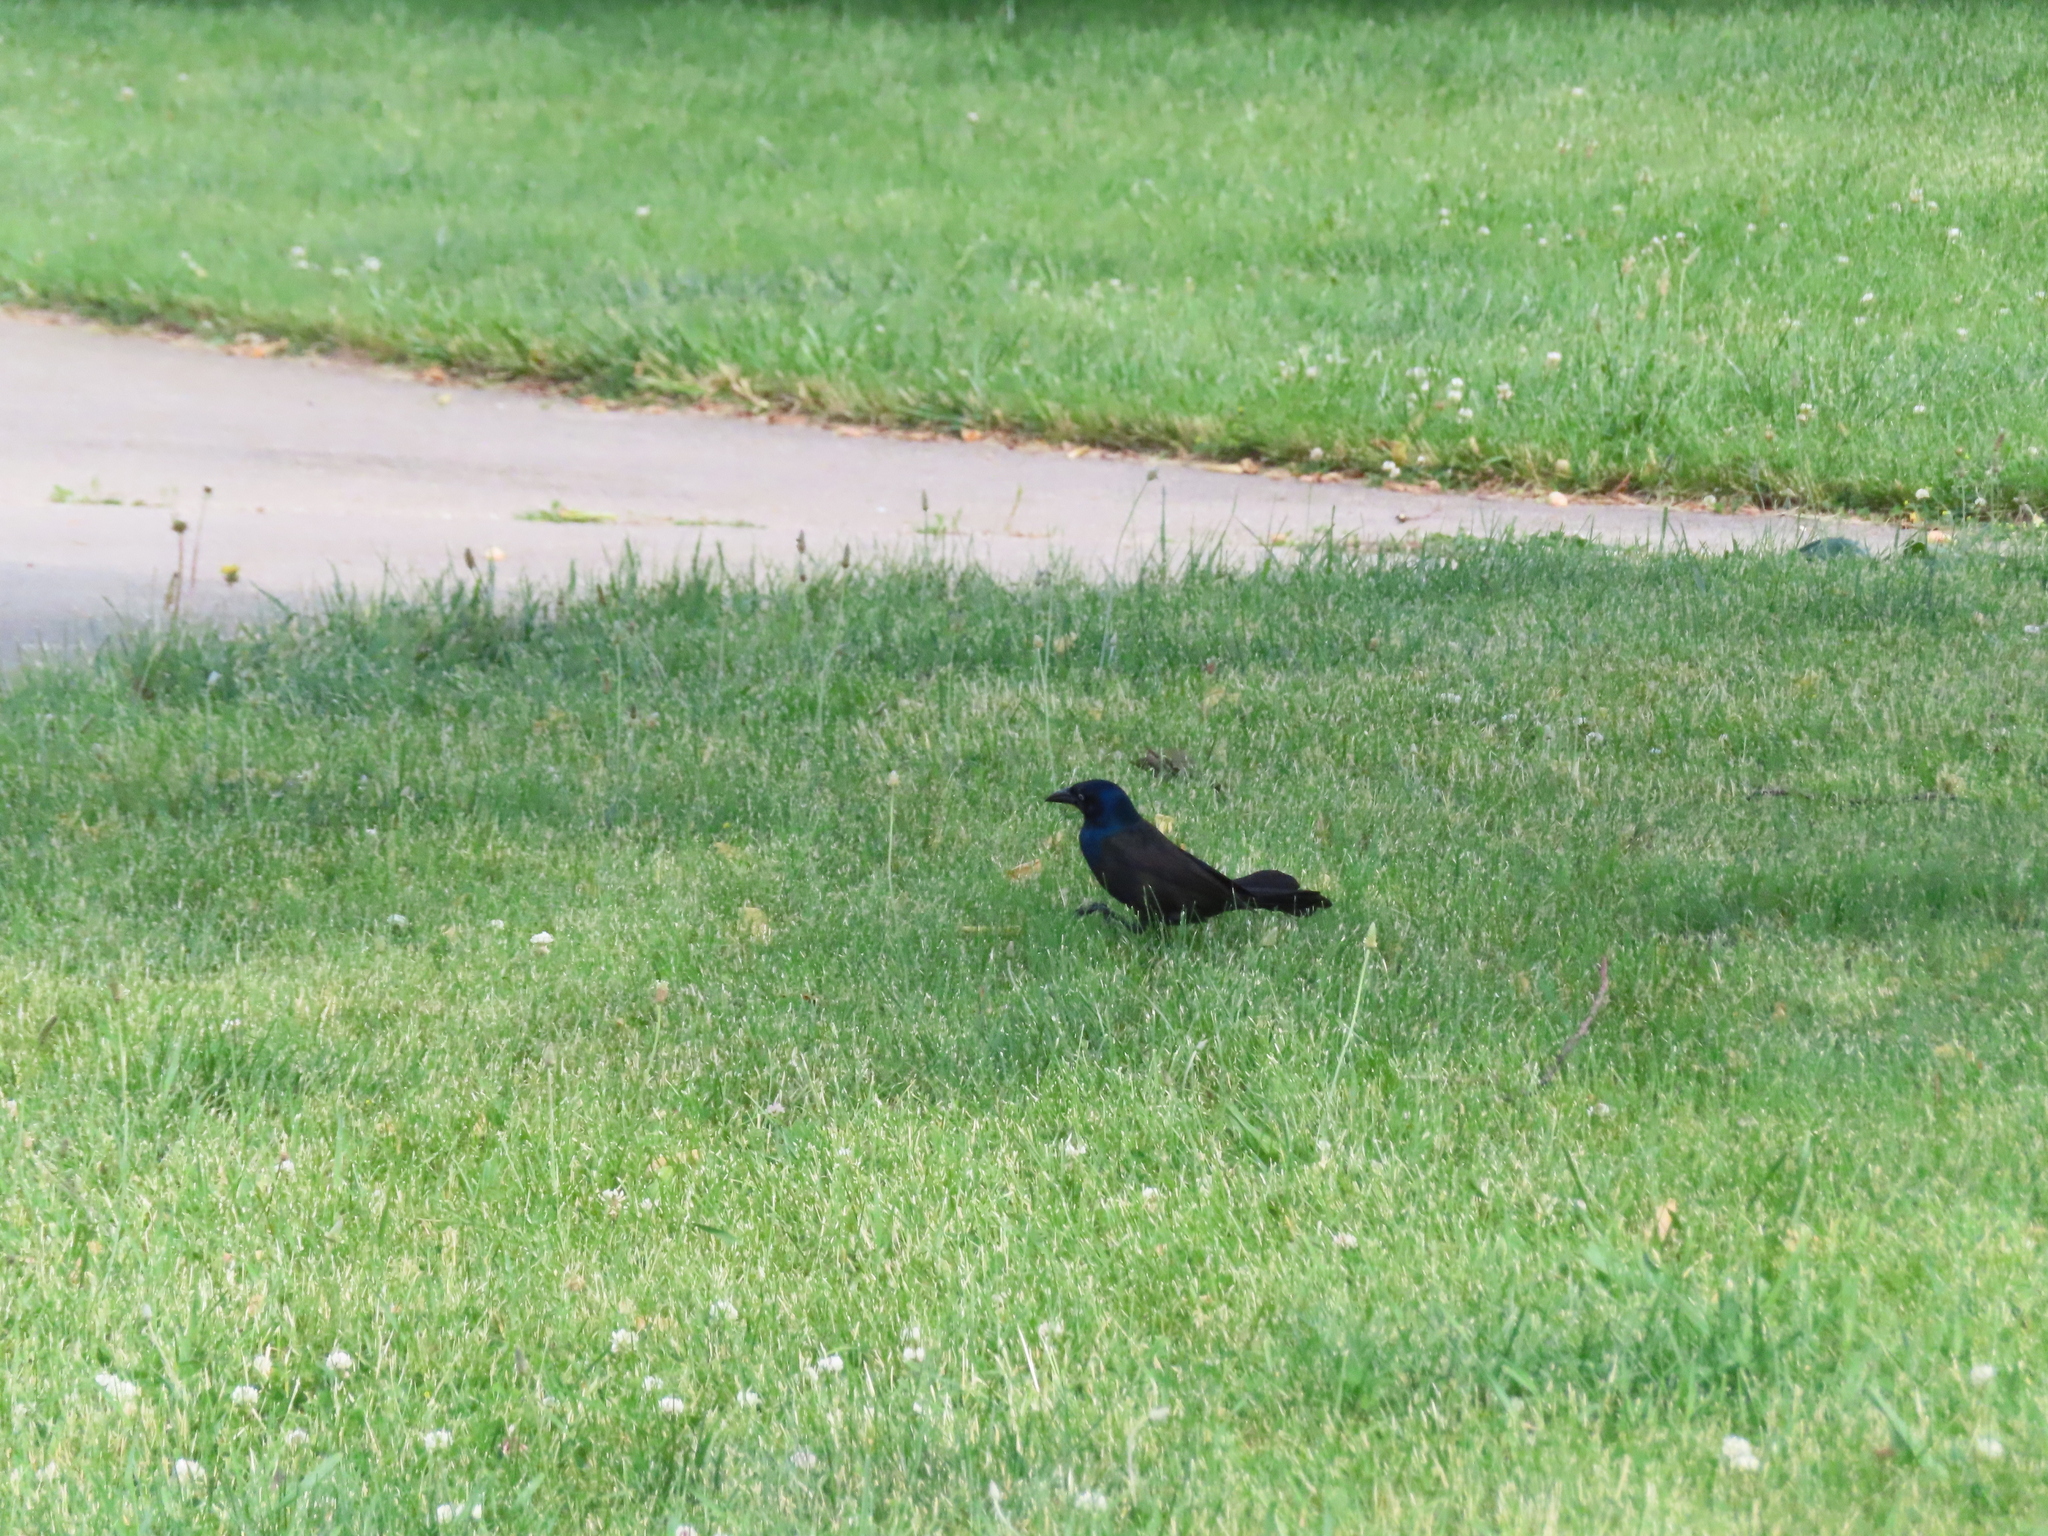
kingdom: Animalia
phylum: Chordata
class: Aves
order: Passeriformes
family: Icteridae
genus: Quiscalus
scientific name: Quiscalus quiscula
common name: Common grackle
